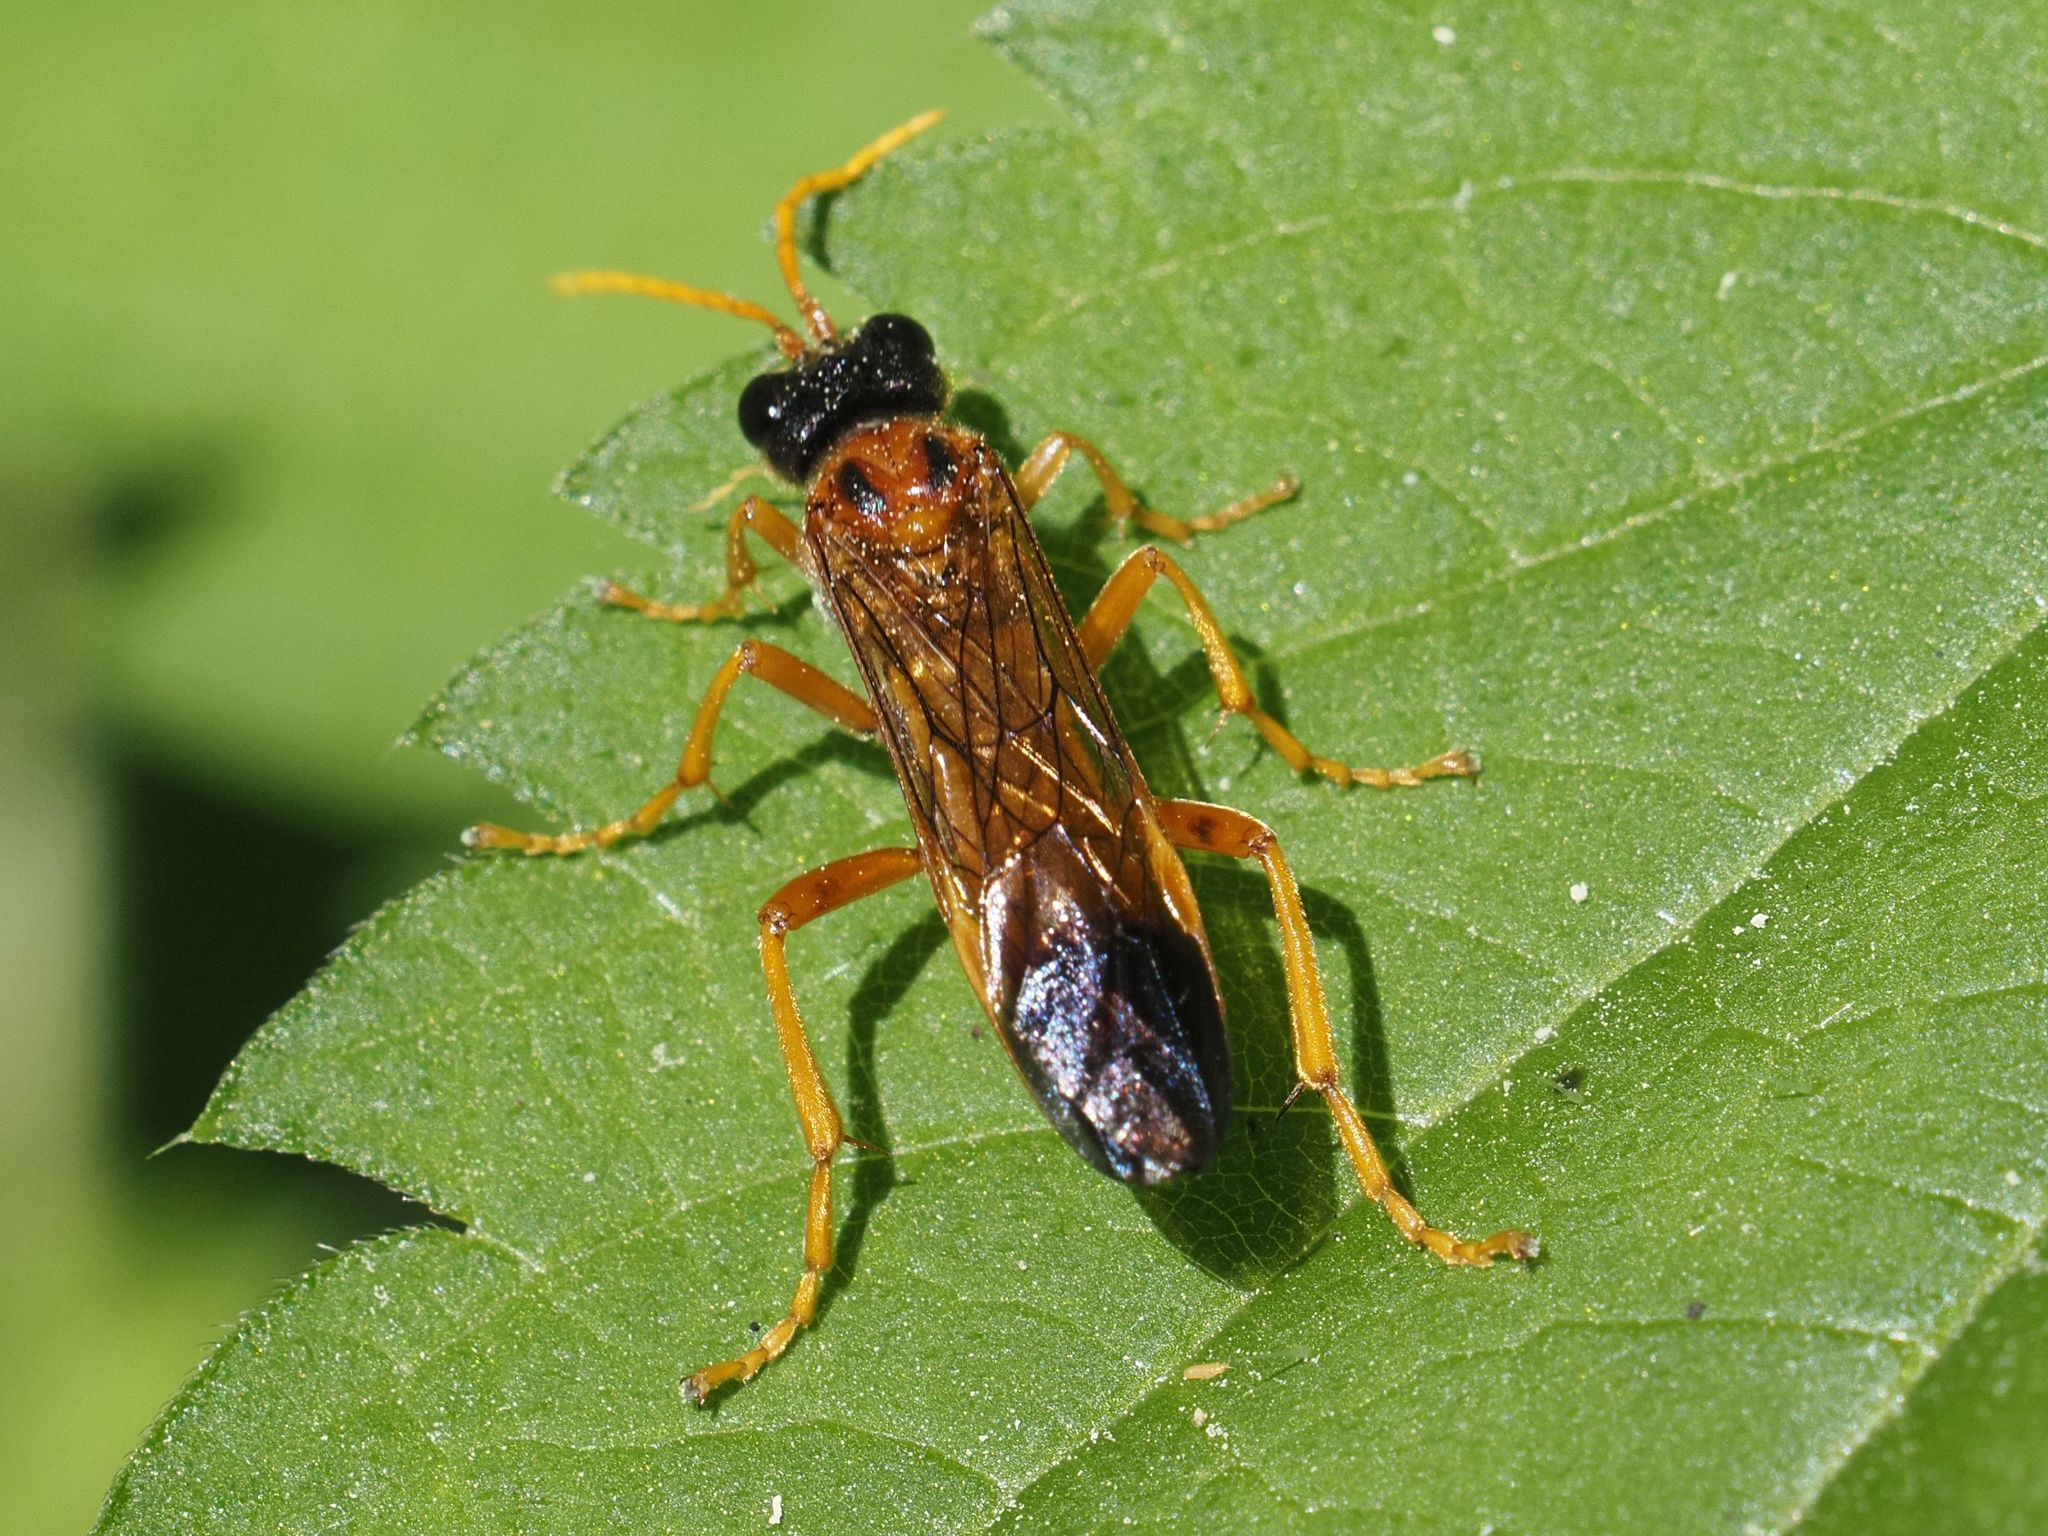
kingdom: Animalia
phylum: Arthropoda
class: Insecta
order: Hymenoptera
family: Tenthredinidae
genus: Tenthredo
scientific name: Tenthredo campestris
